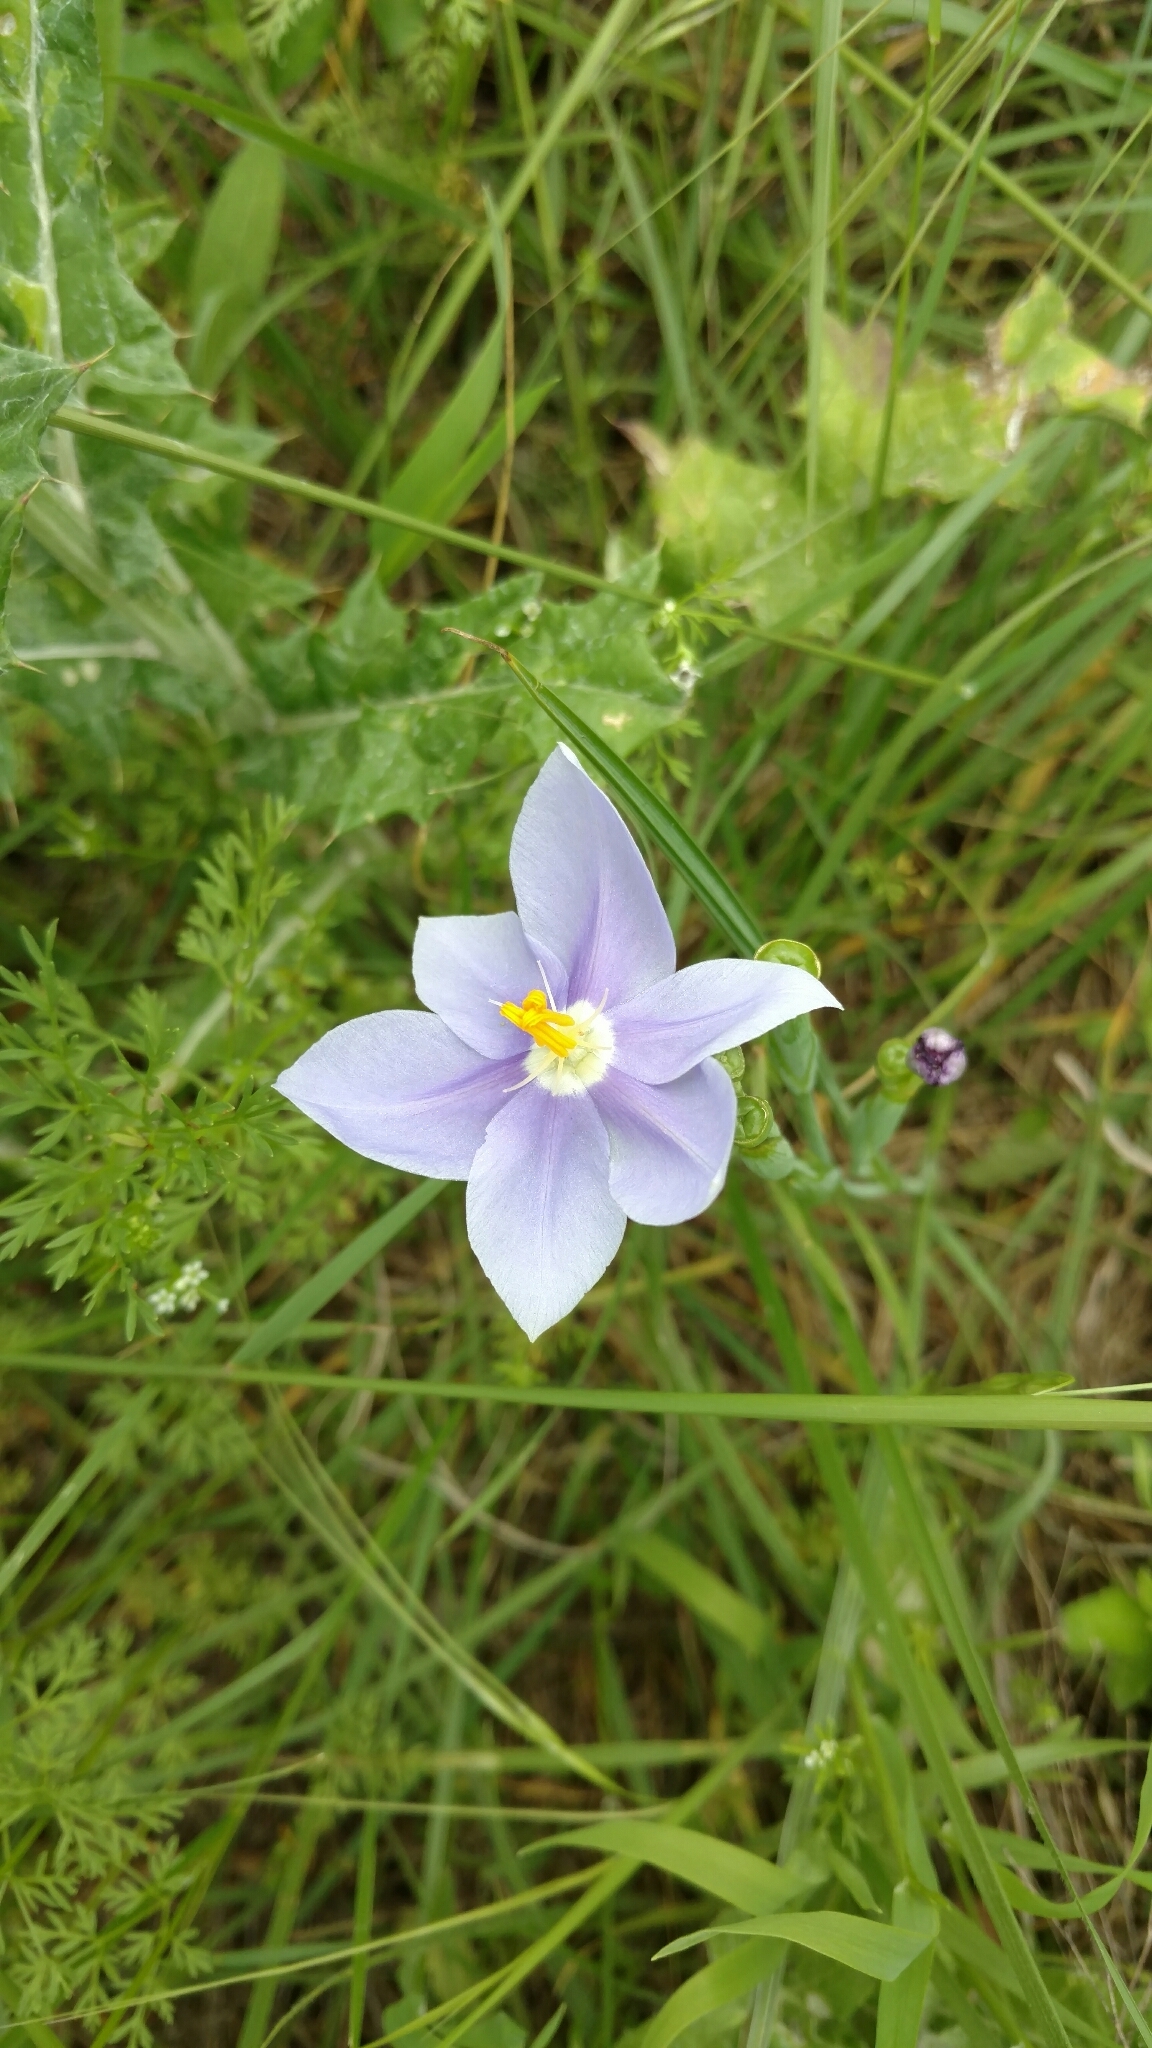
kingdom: Plantae
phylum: Tracheophyta
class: Liliopsida
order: Asparagales
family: Iridaceae
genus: Nemastylis
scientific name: Nemastylis geminiflora
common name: Prairie celestial
